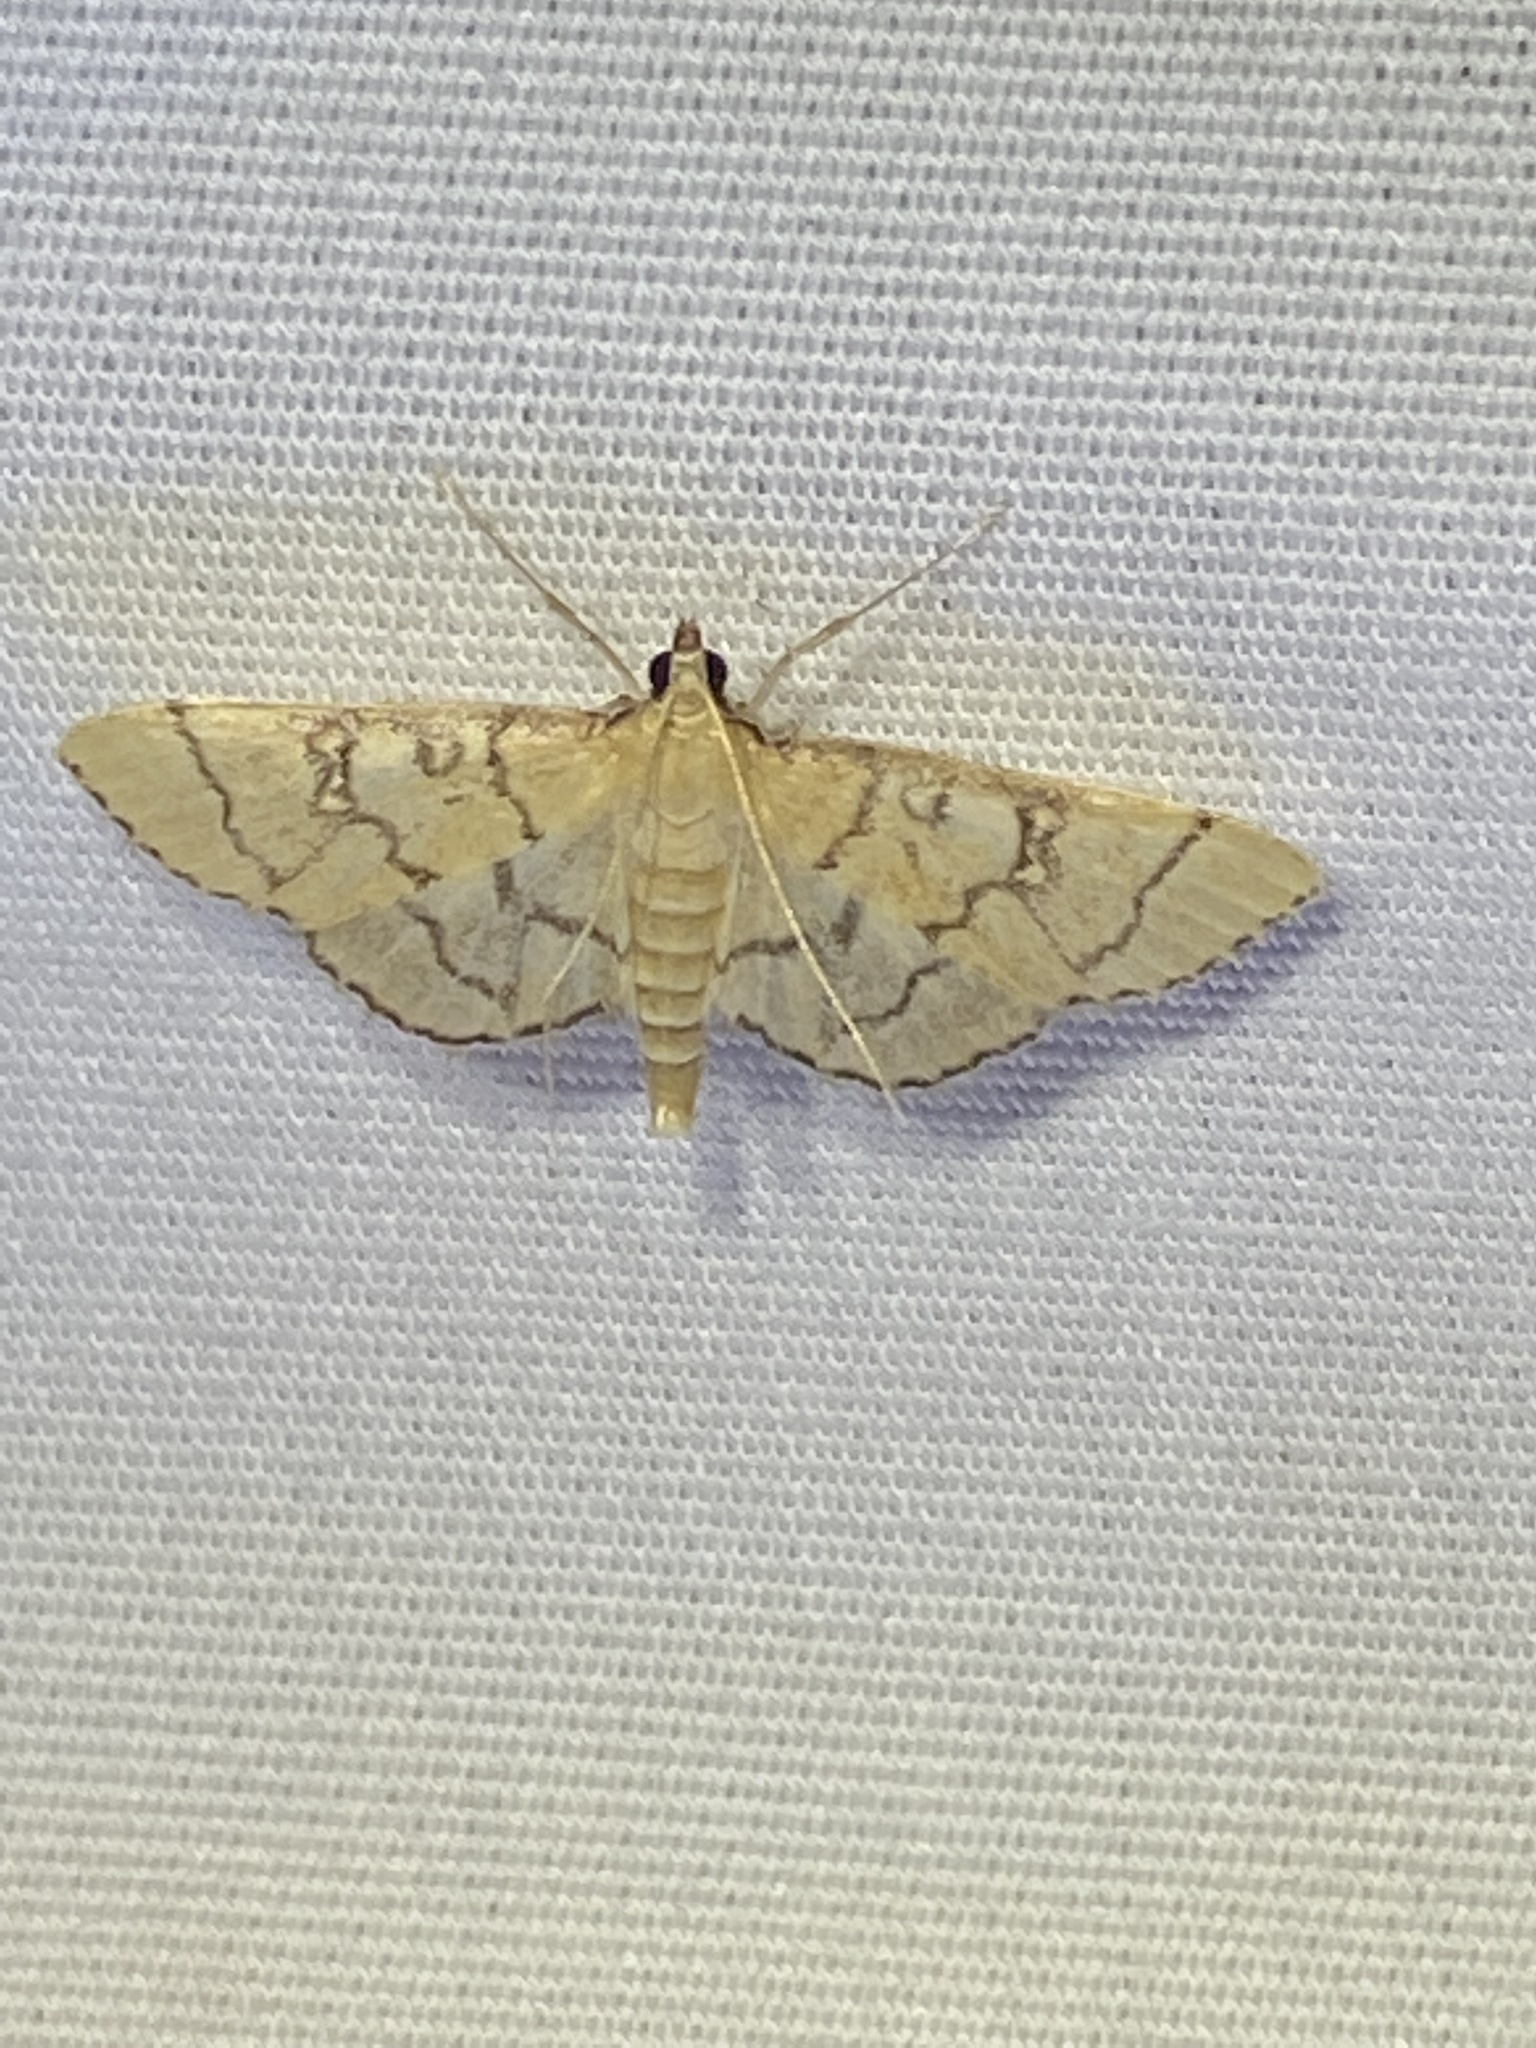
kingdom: Animalia
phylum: Arthropoda
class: Insecta
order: Lepidoptera
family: Crambidae
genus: Lamprosema
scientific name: Lamprosema Blepharomastix ranalis
